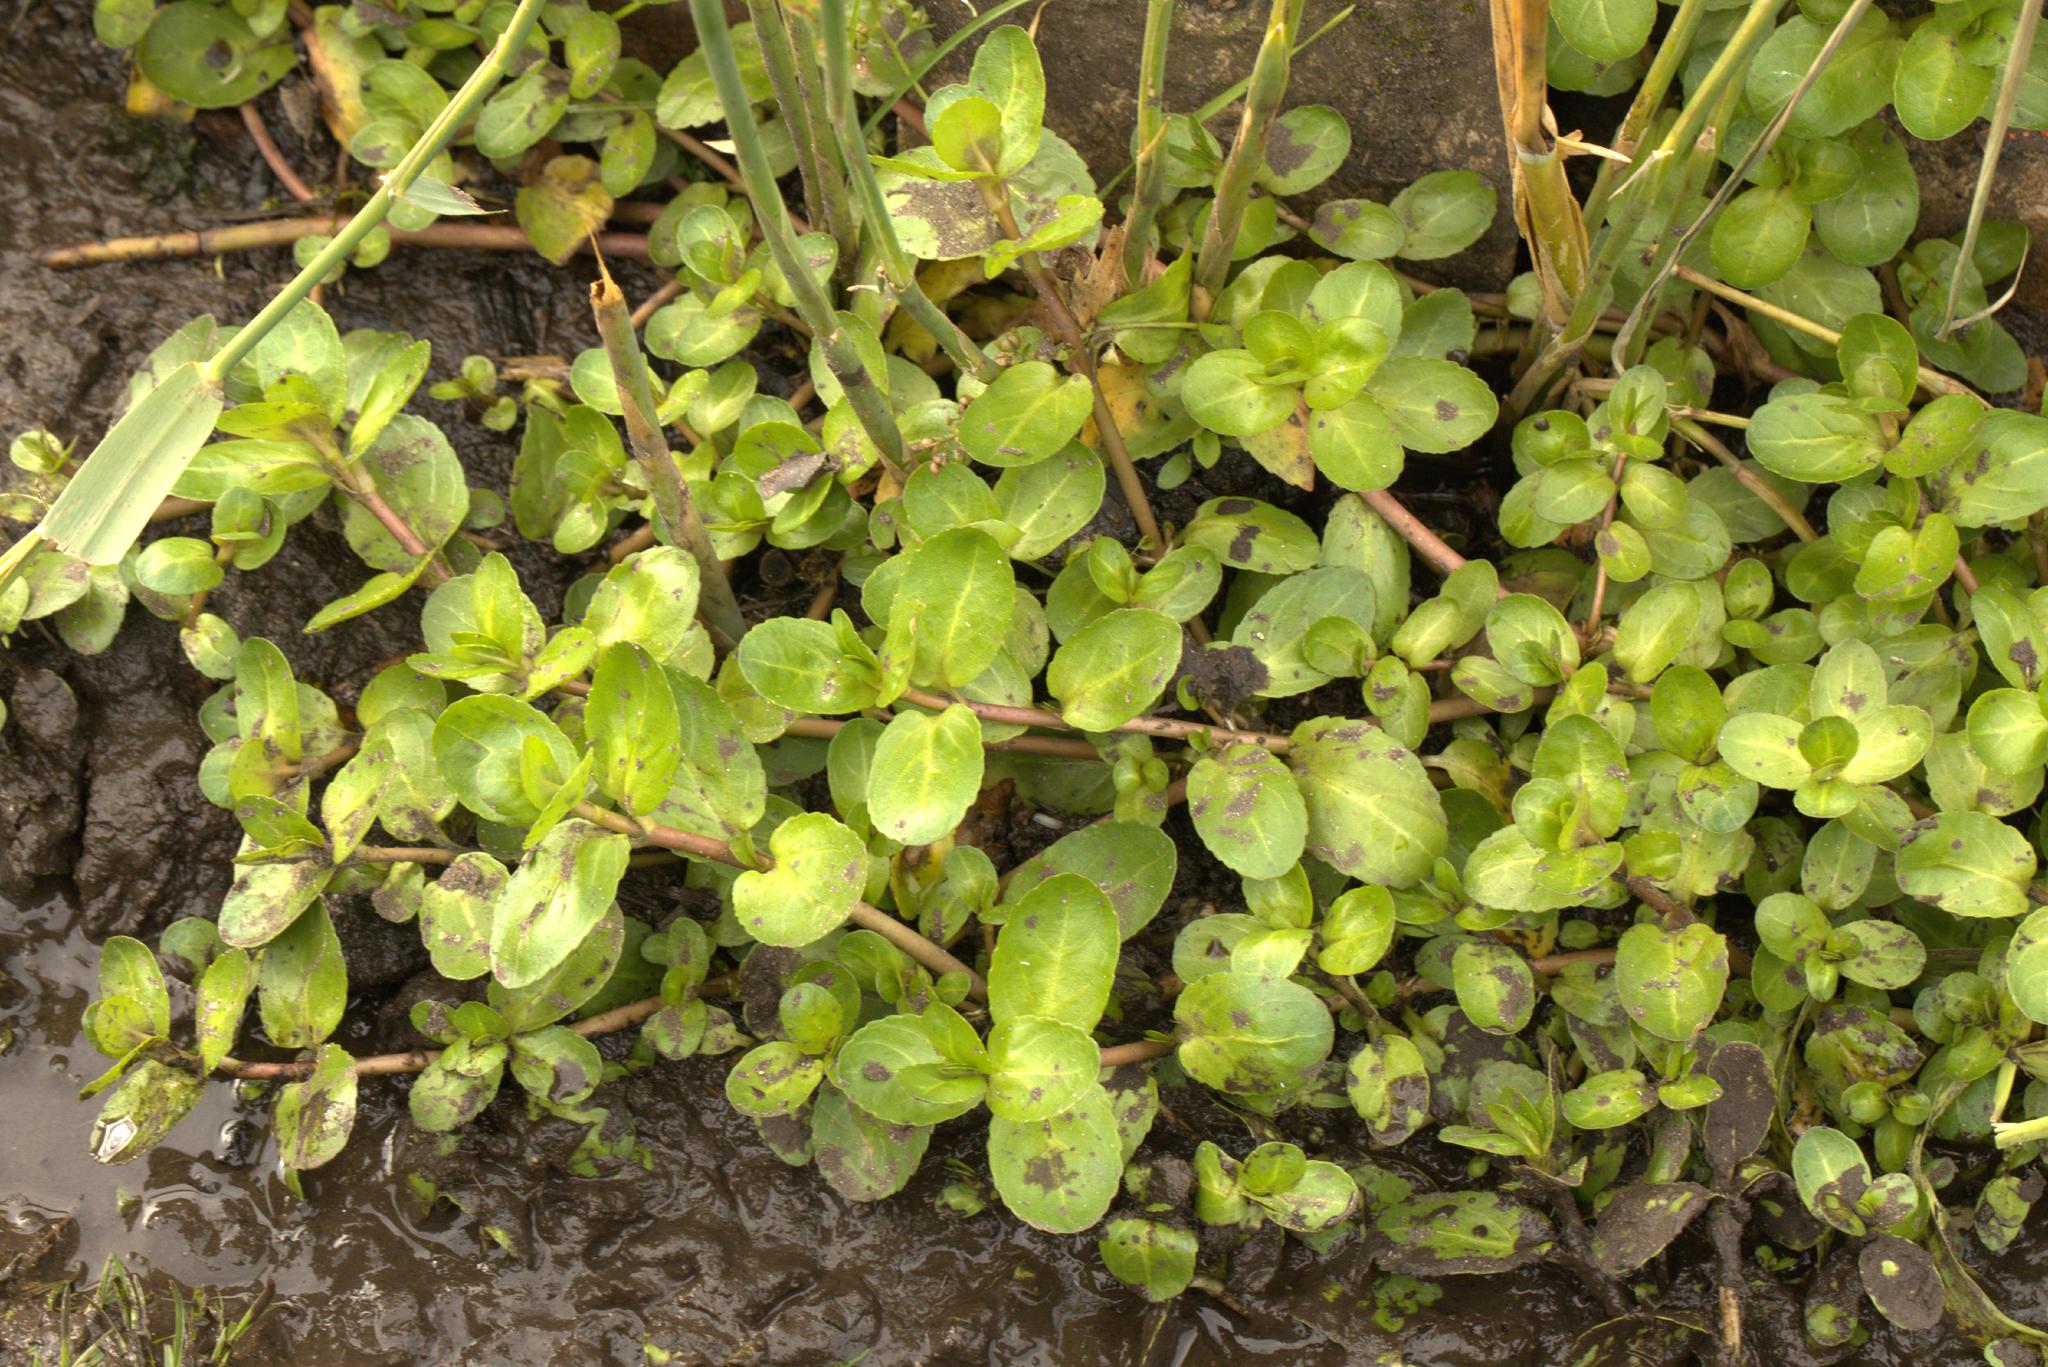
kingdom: Plantae
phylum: Tracheophyta
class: Magnoliopsida
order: Lamiales
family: Plantaginaceae
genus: Veronica
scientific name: Veronica beccabunga
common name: Brooklime
